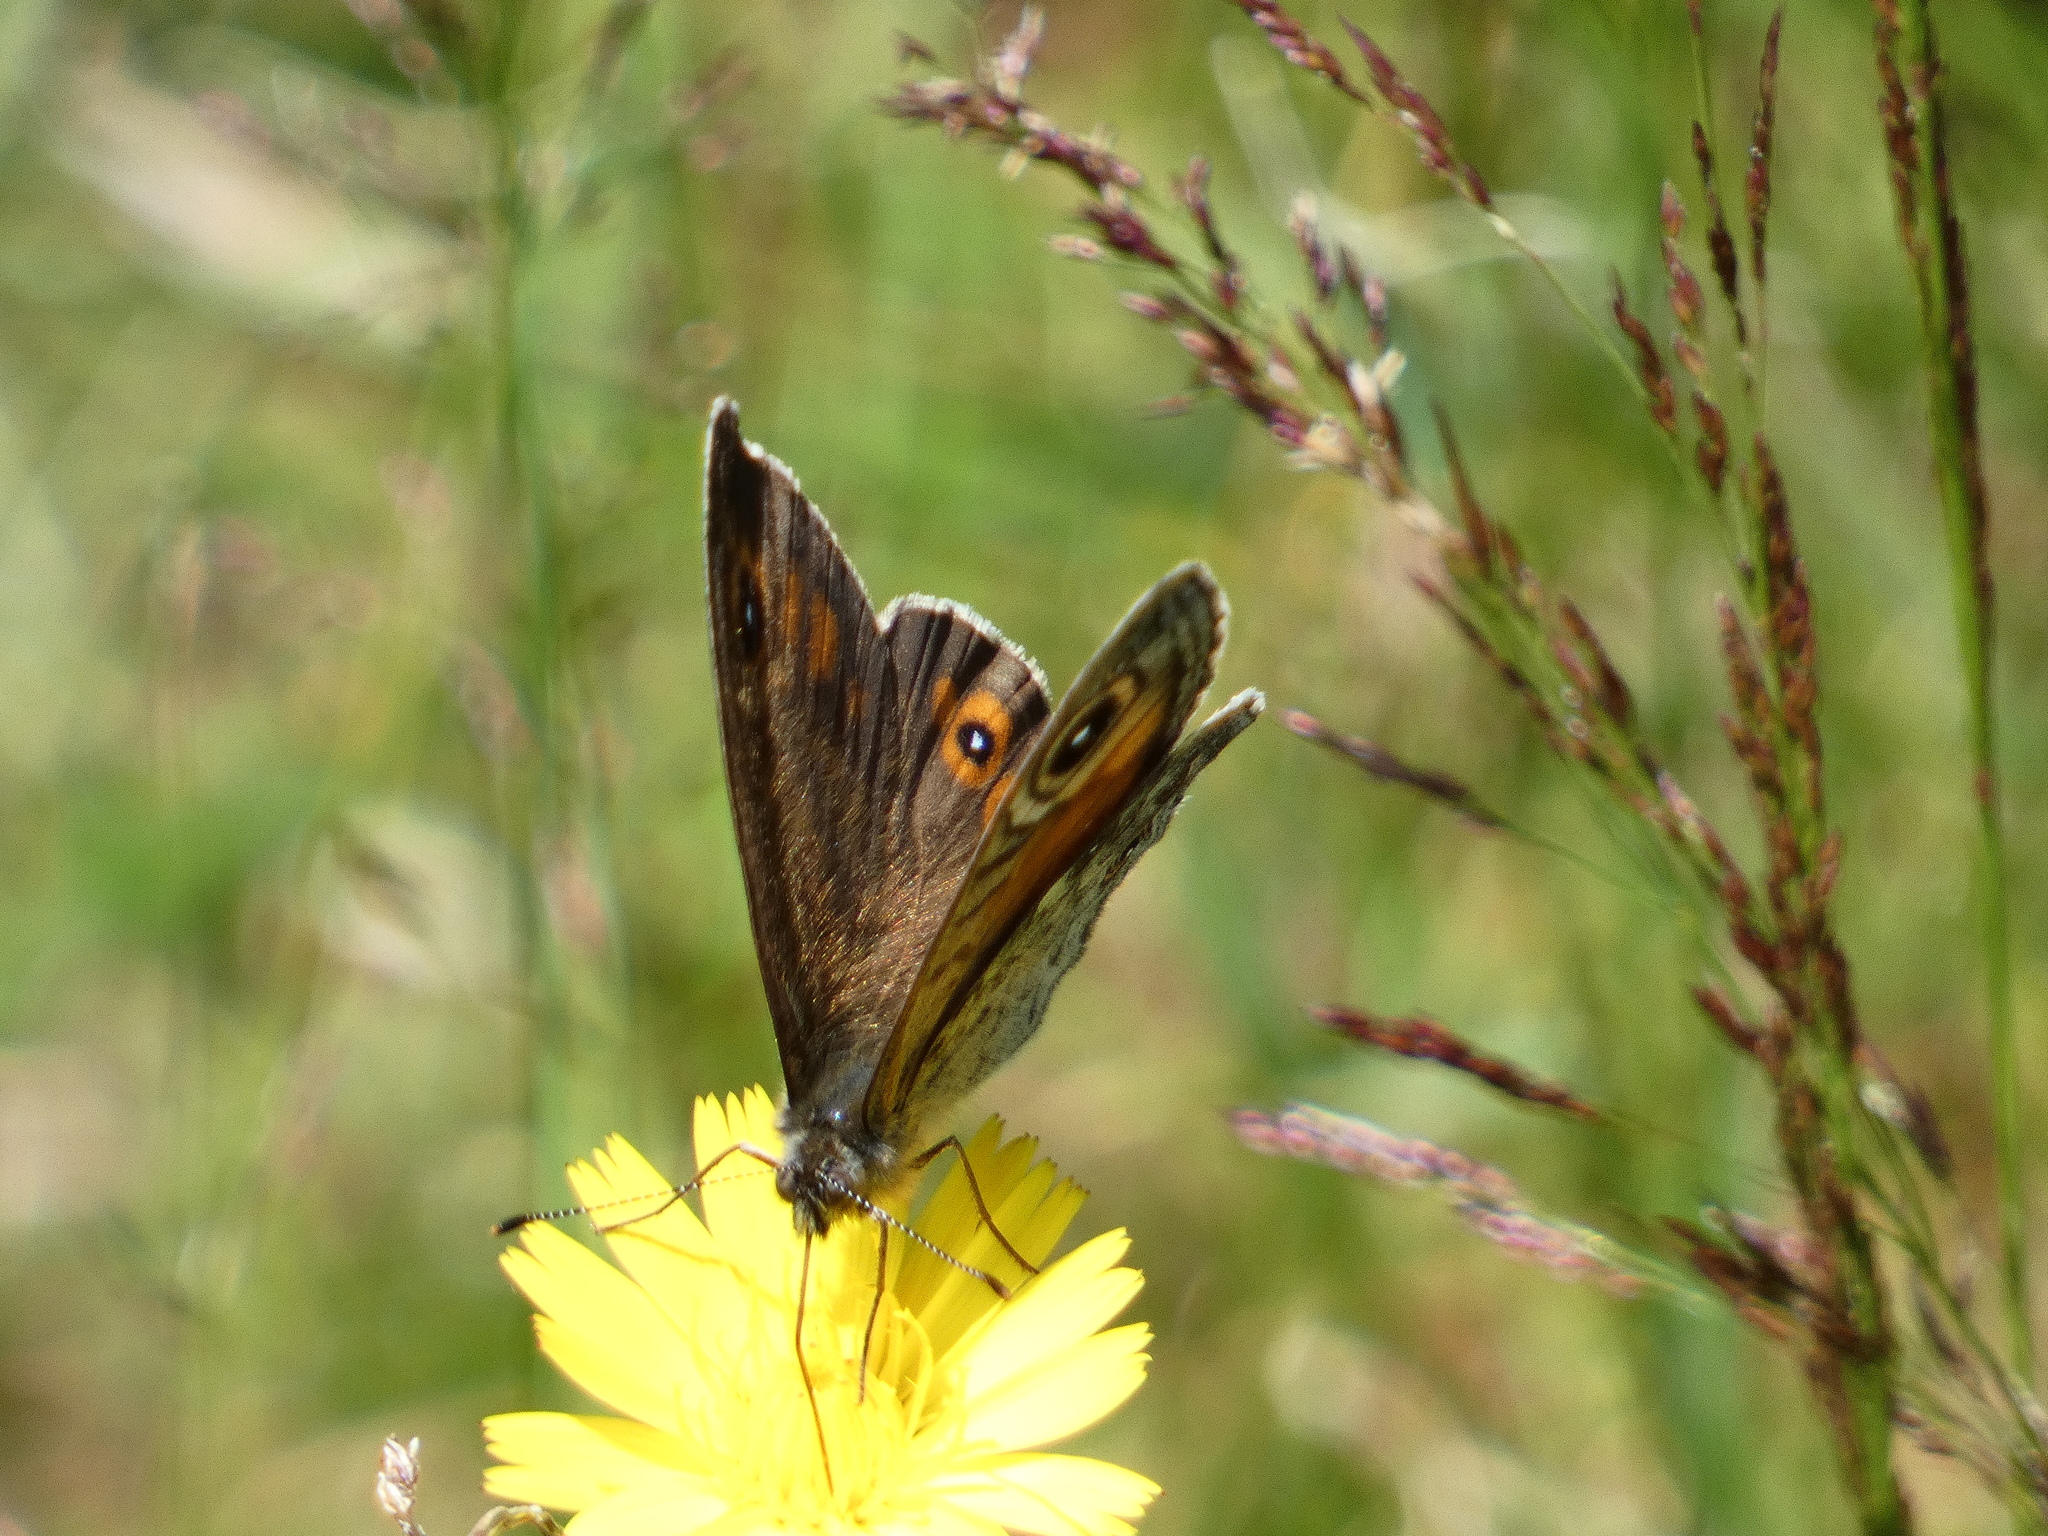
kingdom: Animalia
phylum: Arthropoda
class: Insecta
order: Lepidoptera
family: Nymphalidae
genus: Pararge
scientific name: Pararge Lasiommata maera
